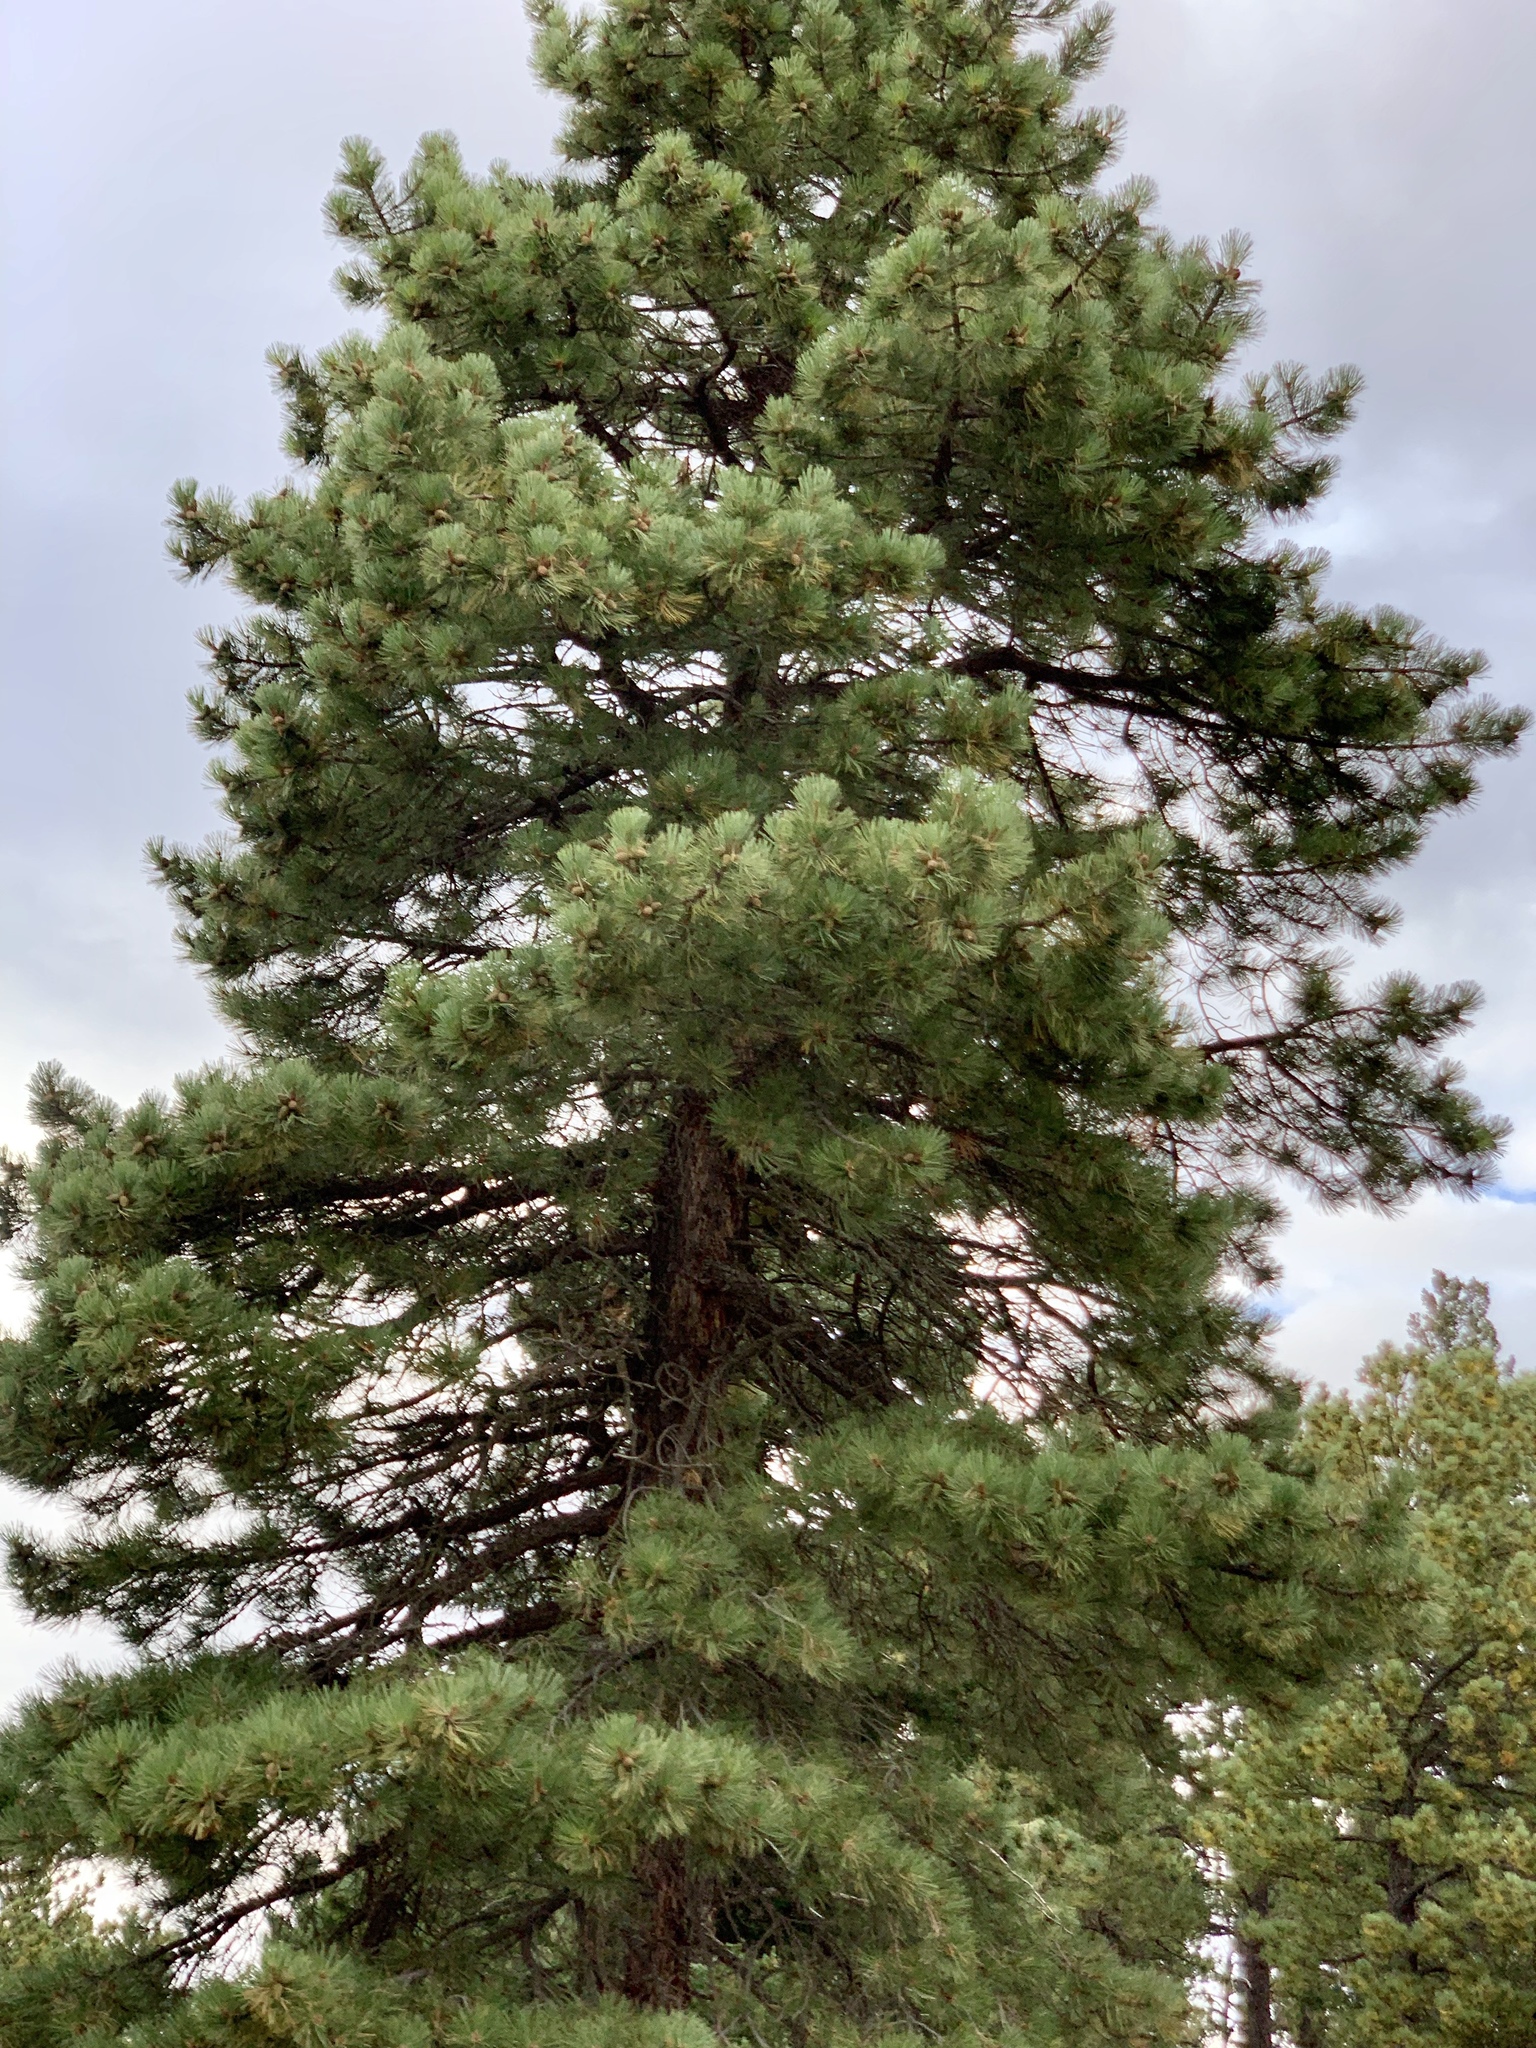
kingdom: Plantae
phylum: Tracheophyta
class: Pinopsida
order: Pinales
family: Pinaceae
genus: Pinus
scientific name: Pinus ponderosa
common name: Western yellow-pine
